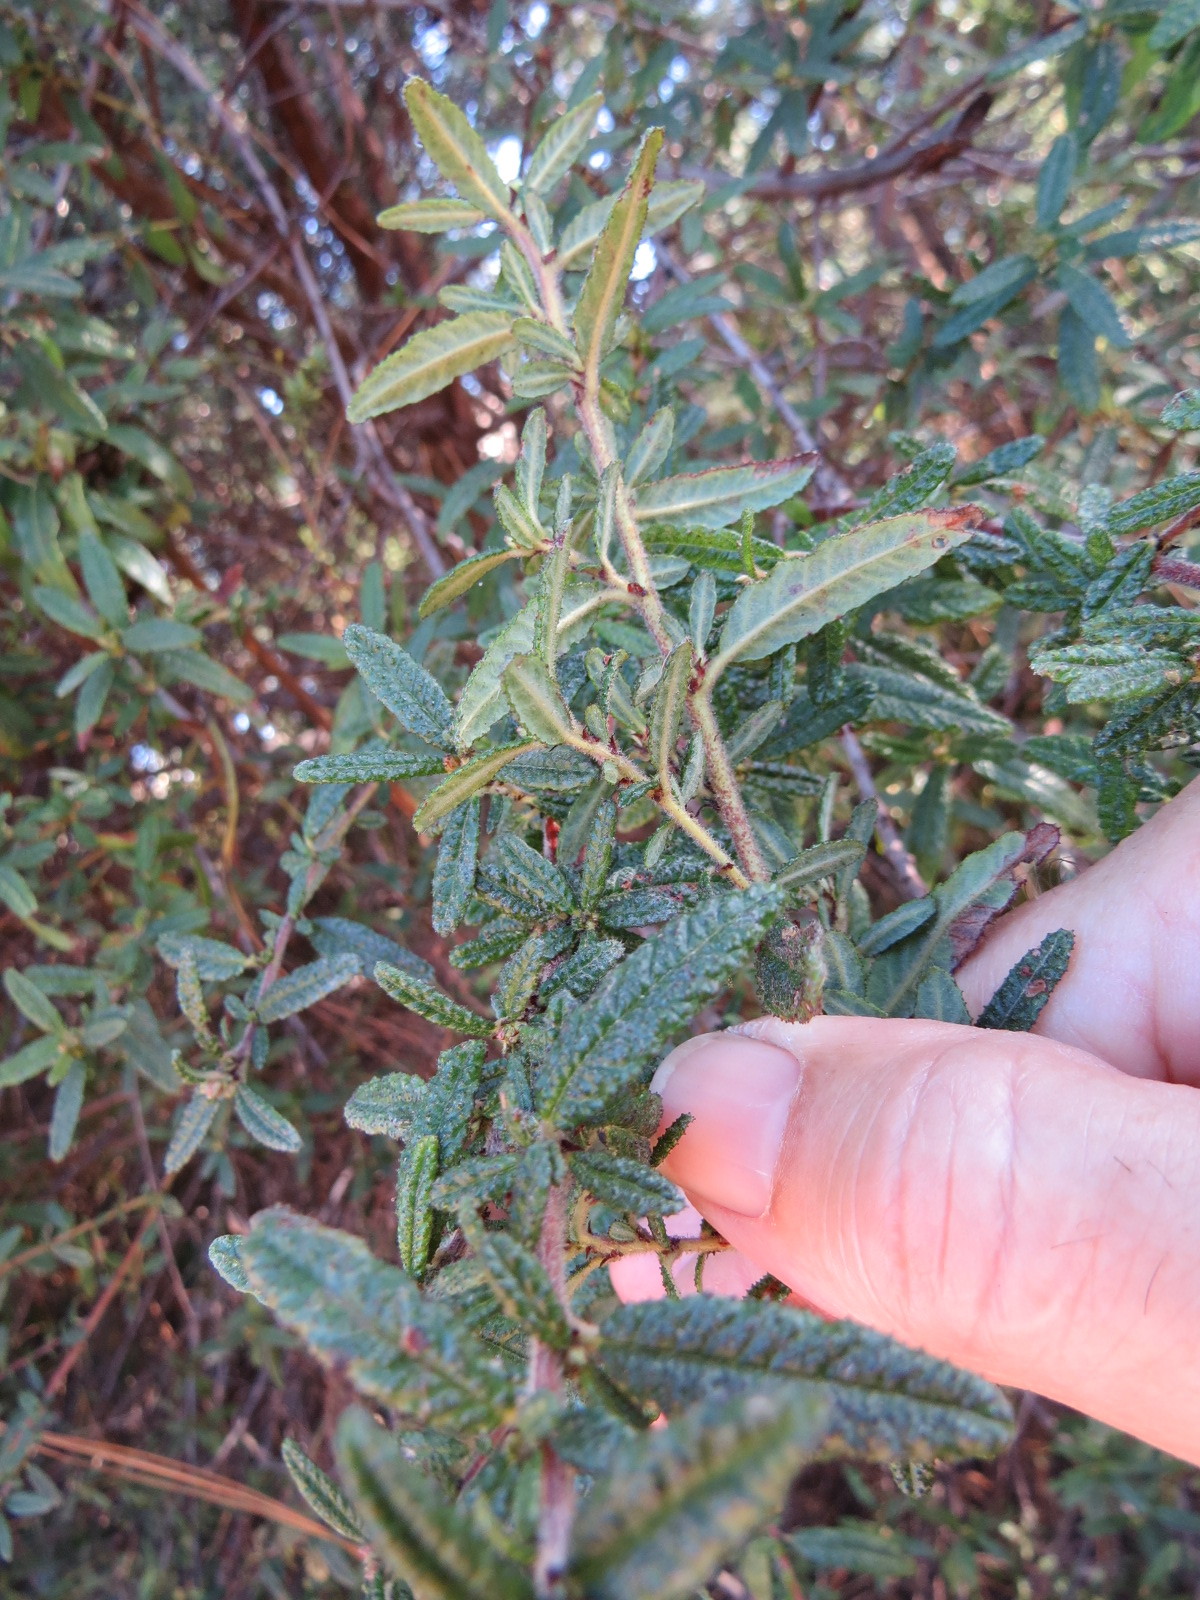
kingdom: Plantae
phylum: Tracheophyta
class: Magnoliopsida
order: Rosales
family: Rhamnaceae
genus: Ceanothus
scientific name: Ceanothus papillosus
